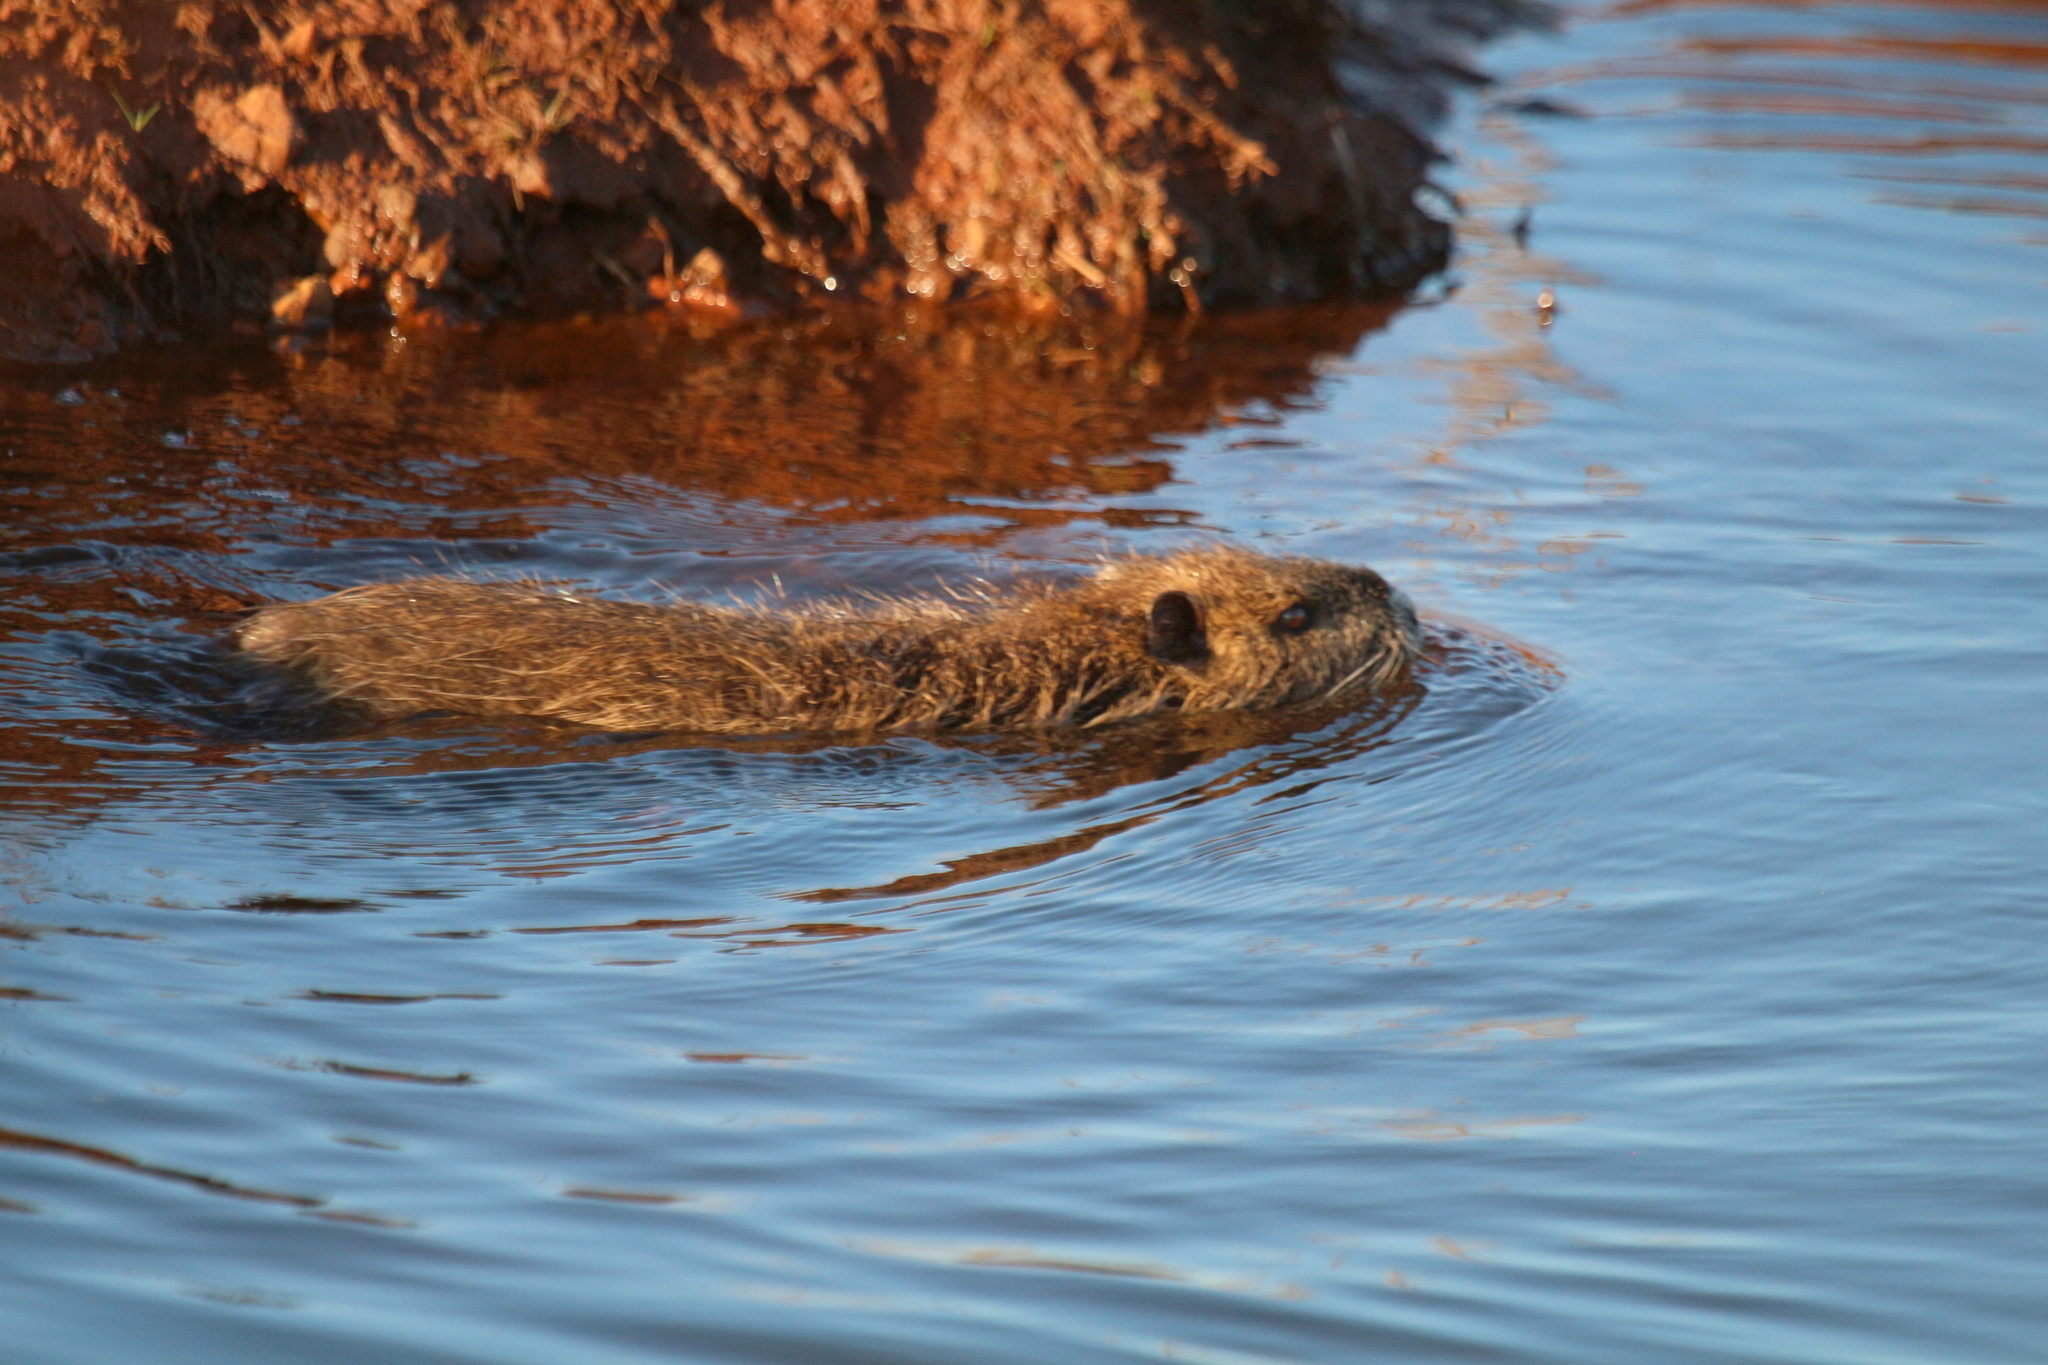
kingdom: Animalia
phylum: Chordata
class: Mammalia
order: Rodentia
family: Myocastoridae
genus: Myocastor
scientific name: Myocastor coypus
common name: Coypu
